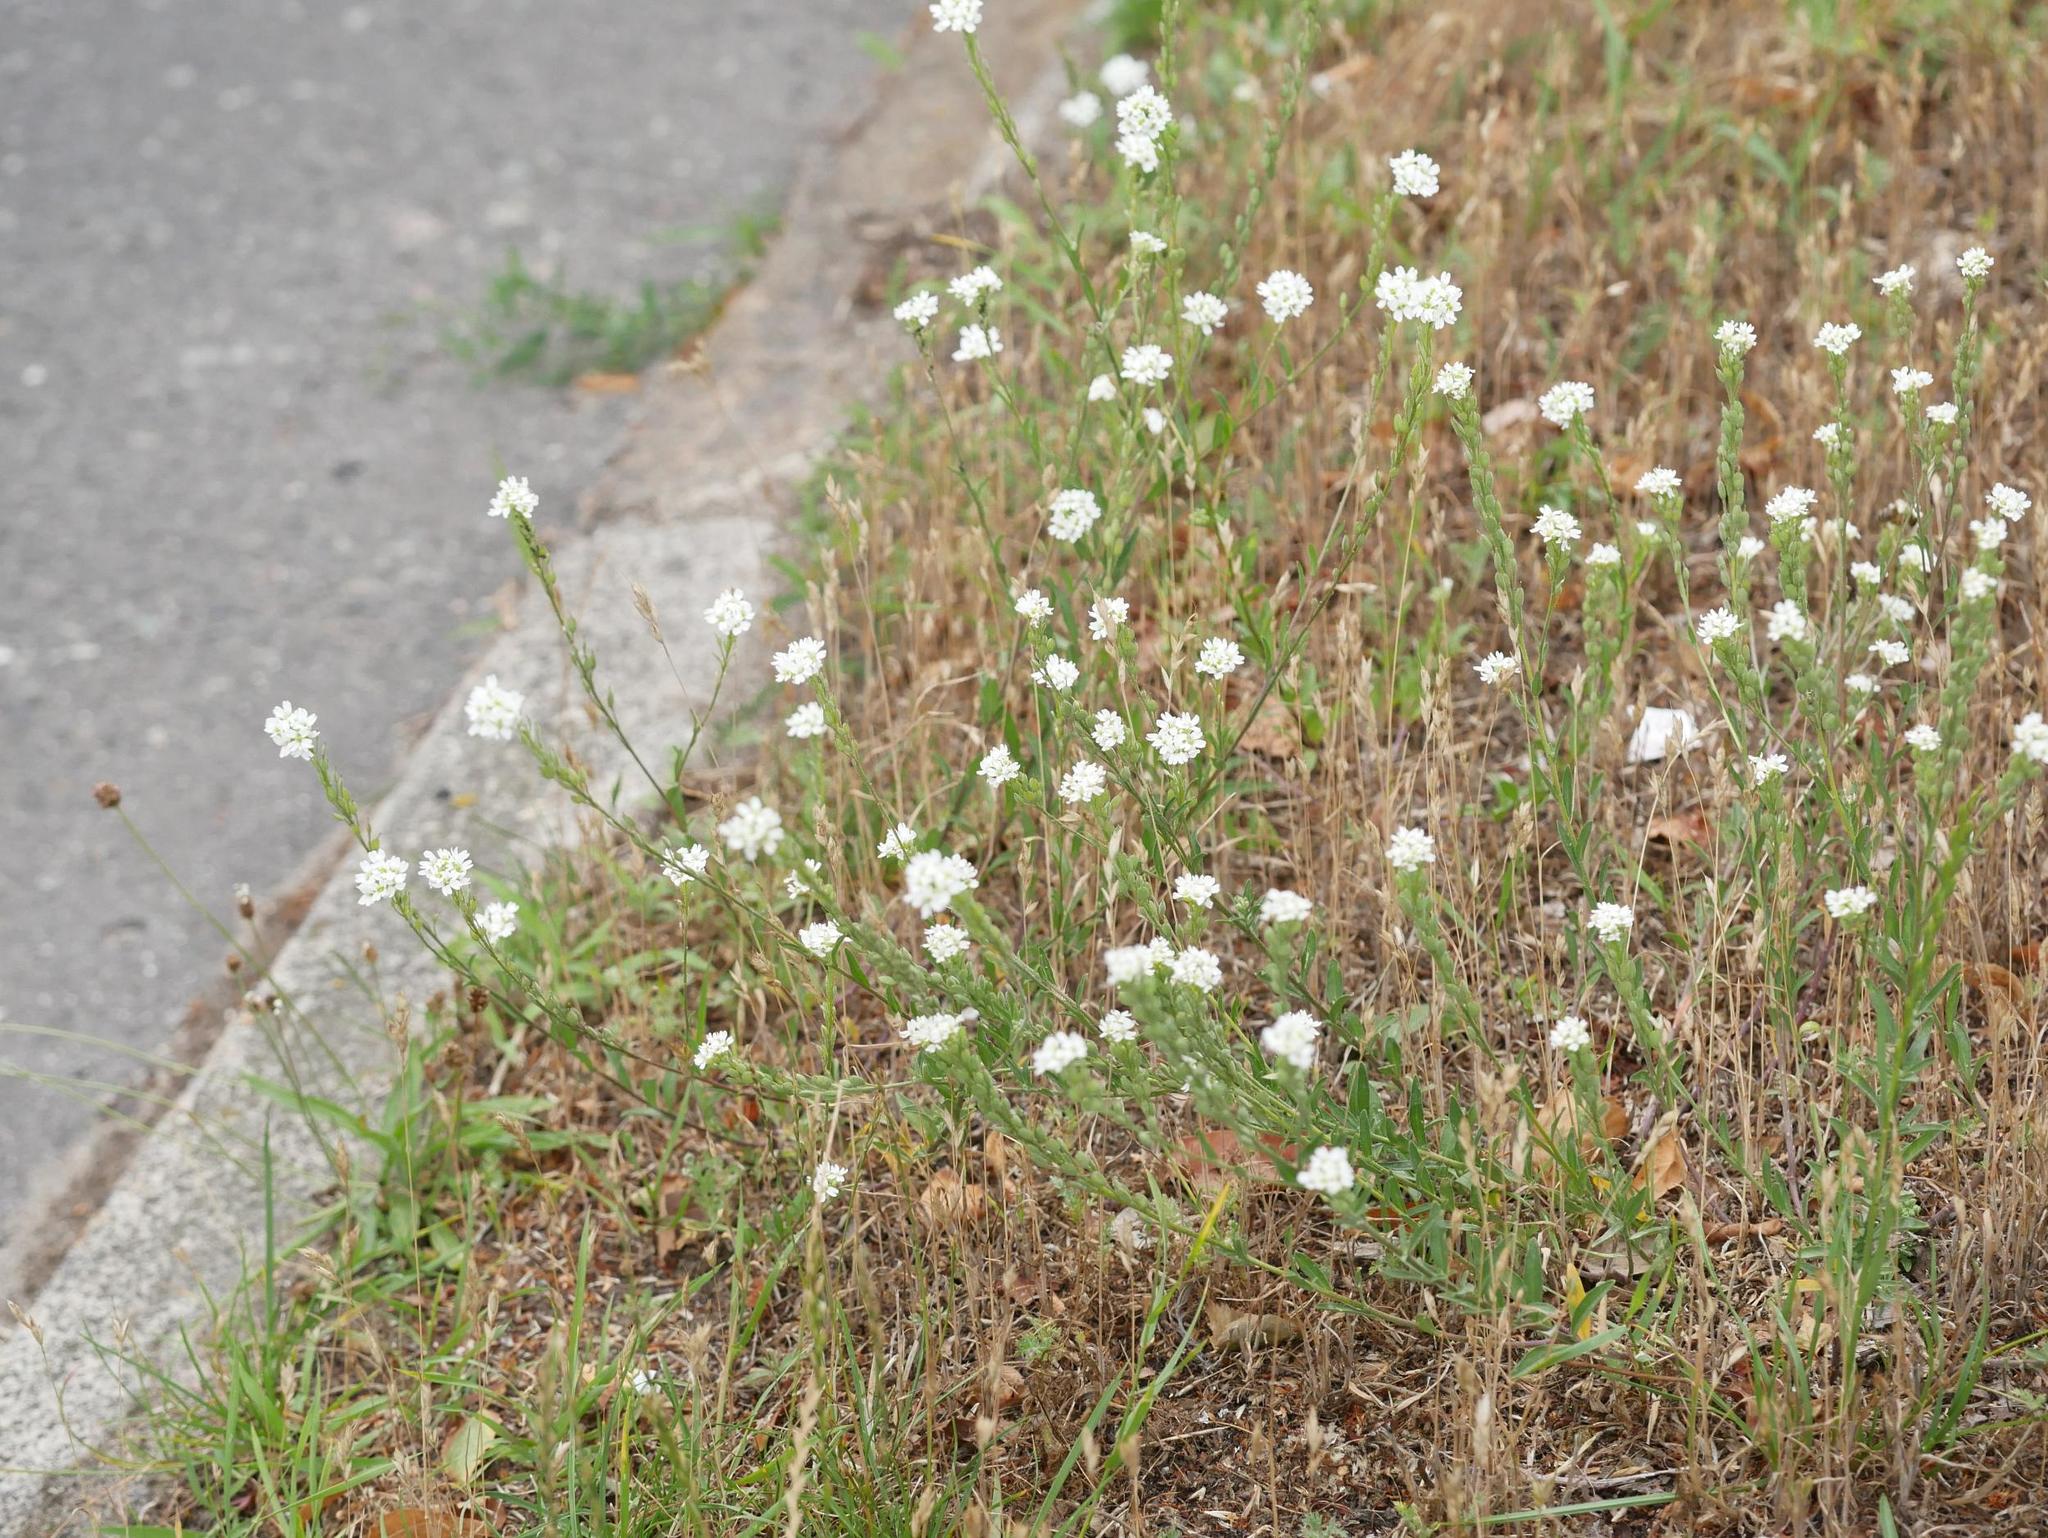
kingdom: Plantae
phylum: Tracheophyta
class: Magnoliopsida
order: Brassicales
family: Brassicaceae
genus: Berteroa
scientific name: Berteroa incana
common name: Hoary alison
